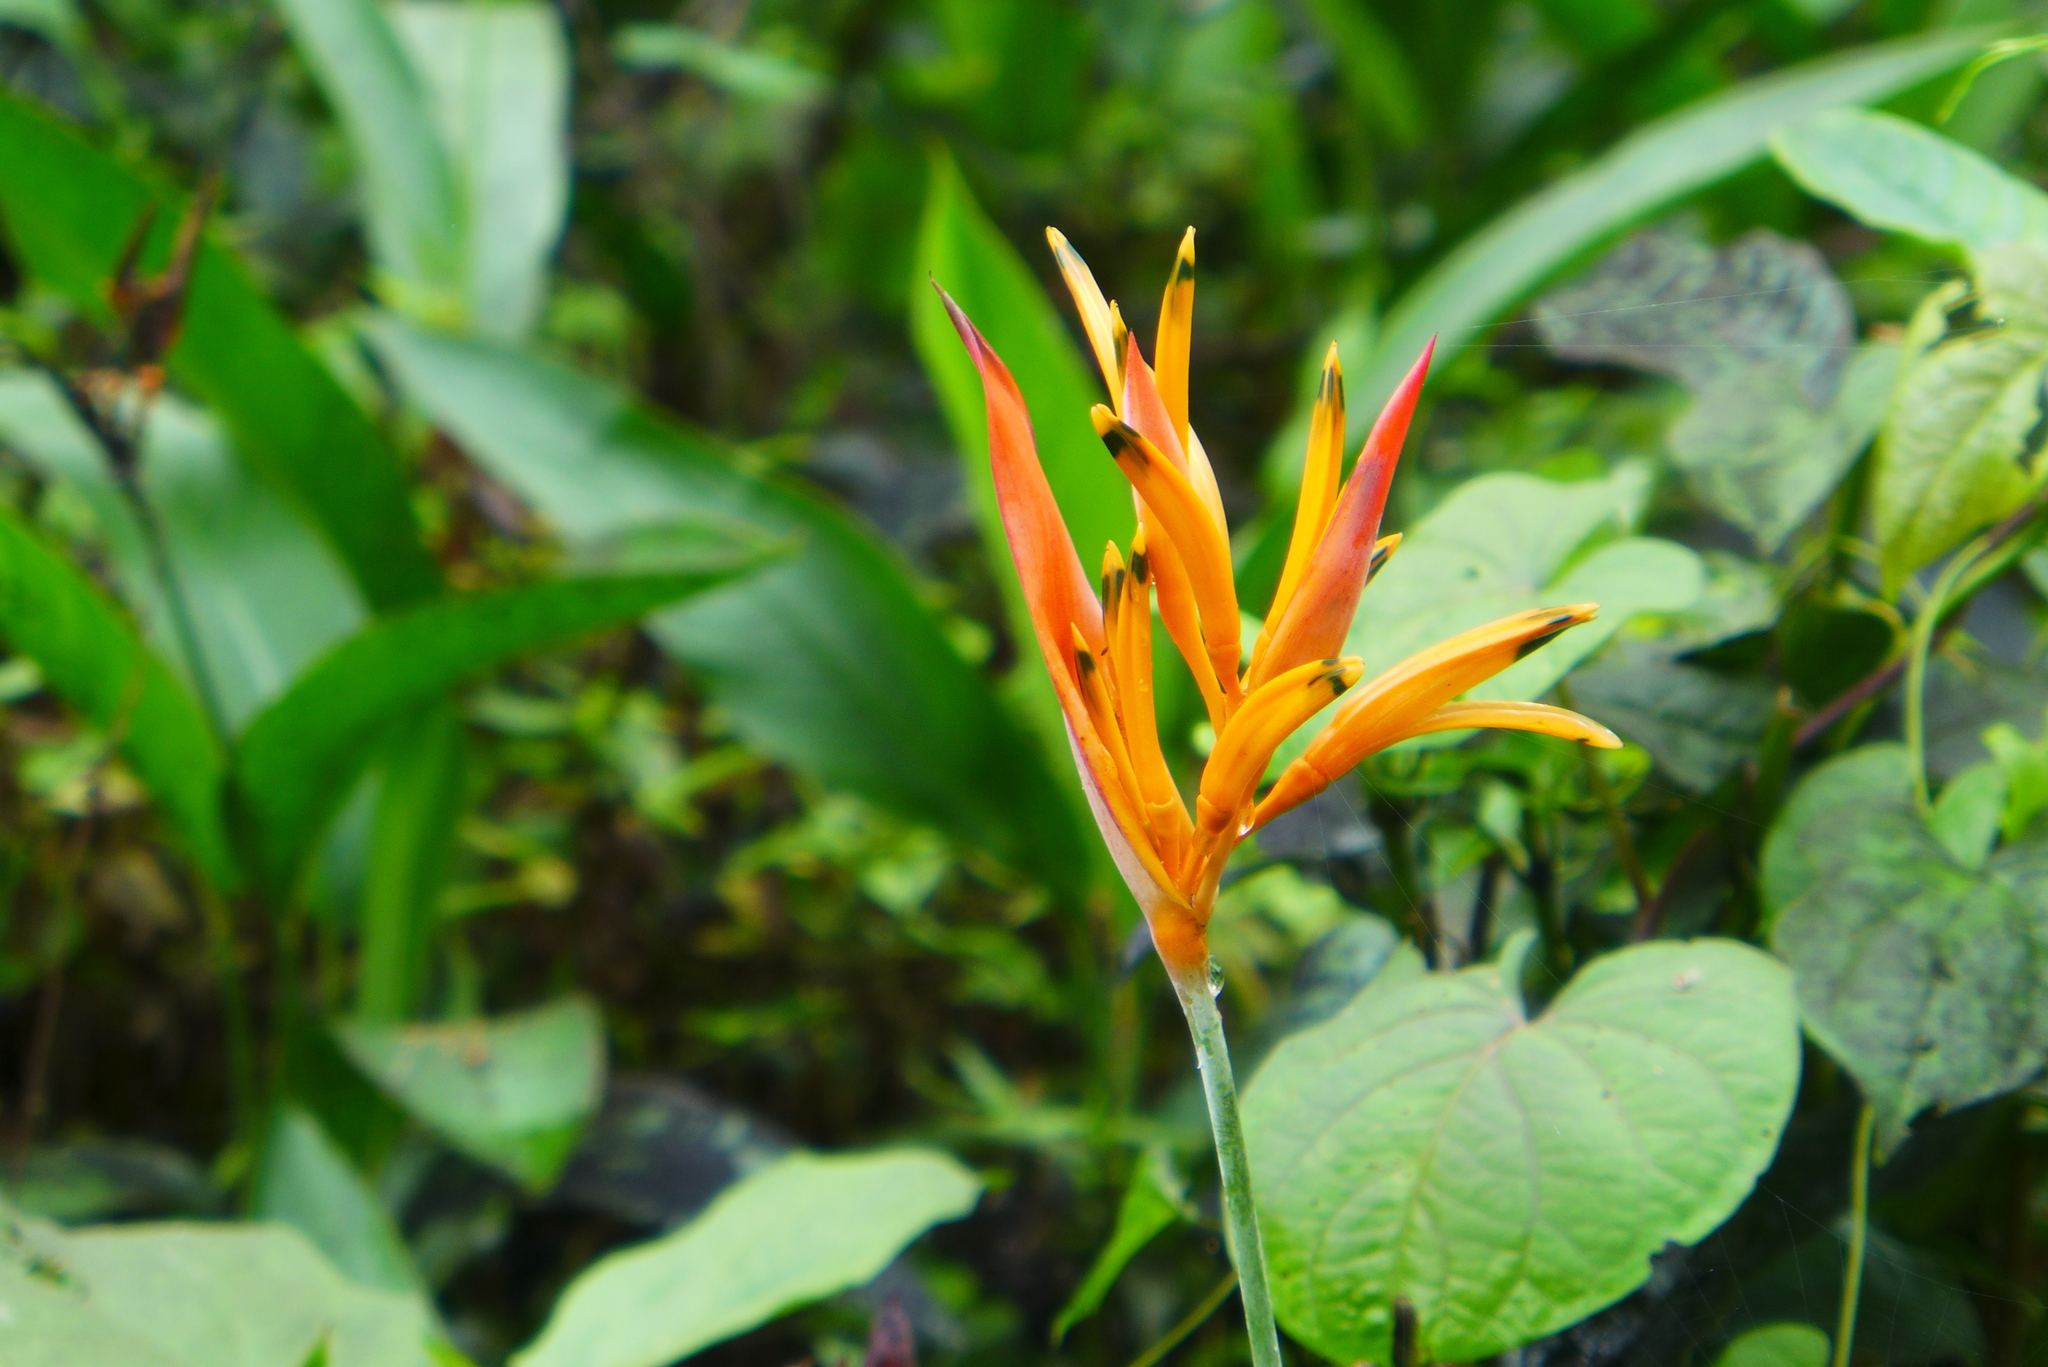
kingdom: Plantae
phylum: Tracheophyta
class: Liliopsida
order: Zingiberales
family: Heliconiaceae
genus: Heliconia
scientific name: Heliconia psittacorum
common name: Parrot's-flower
